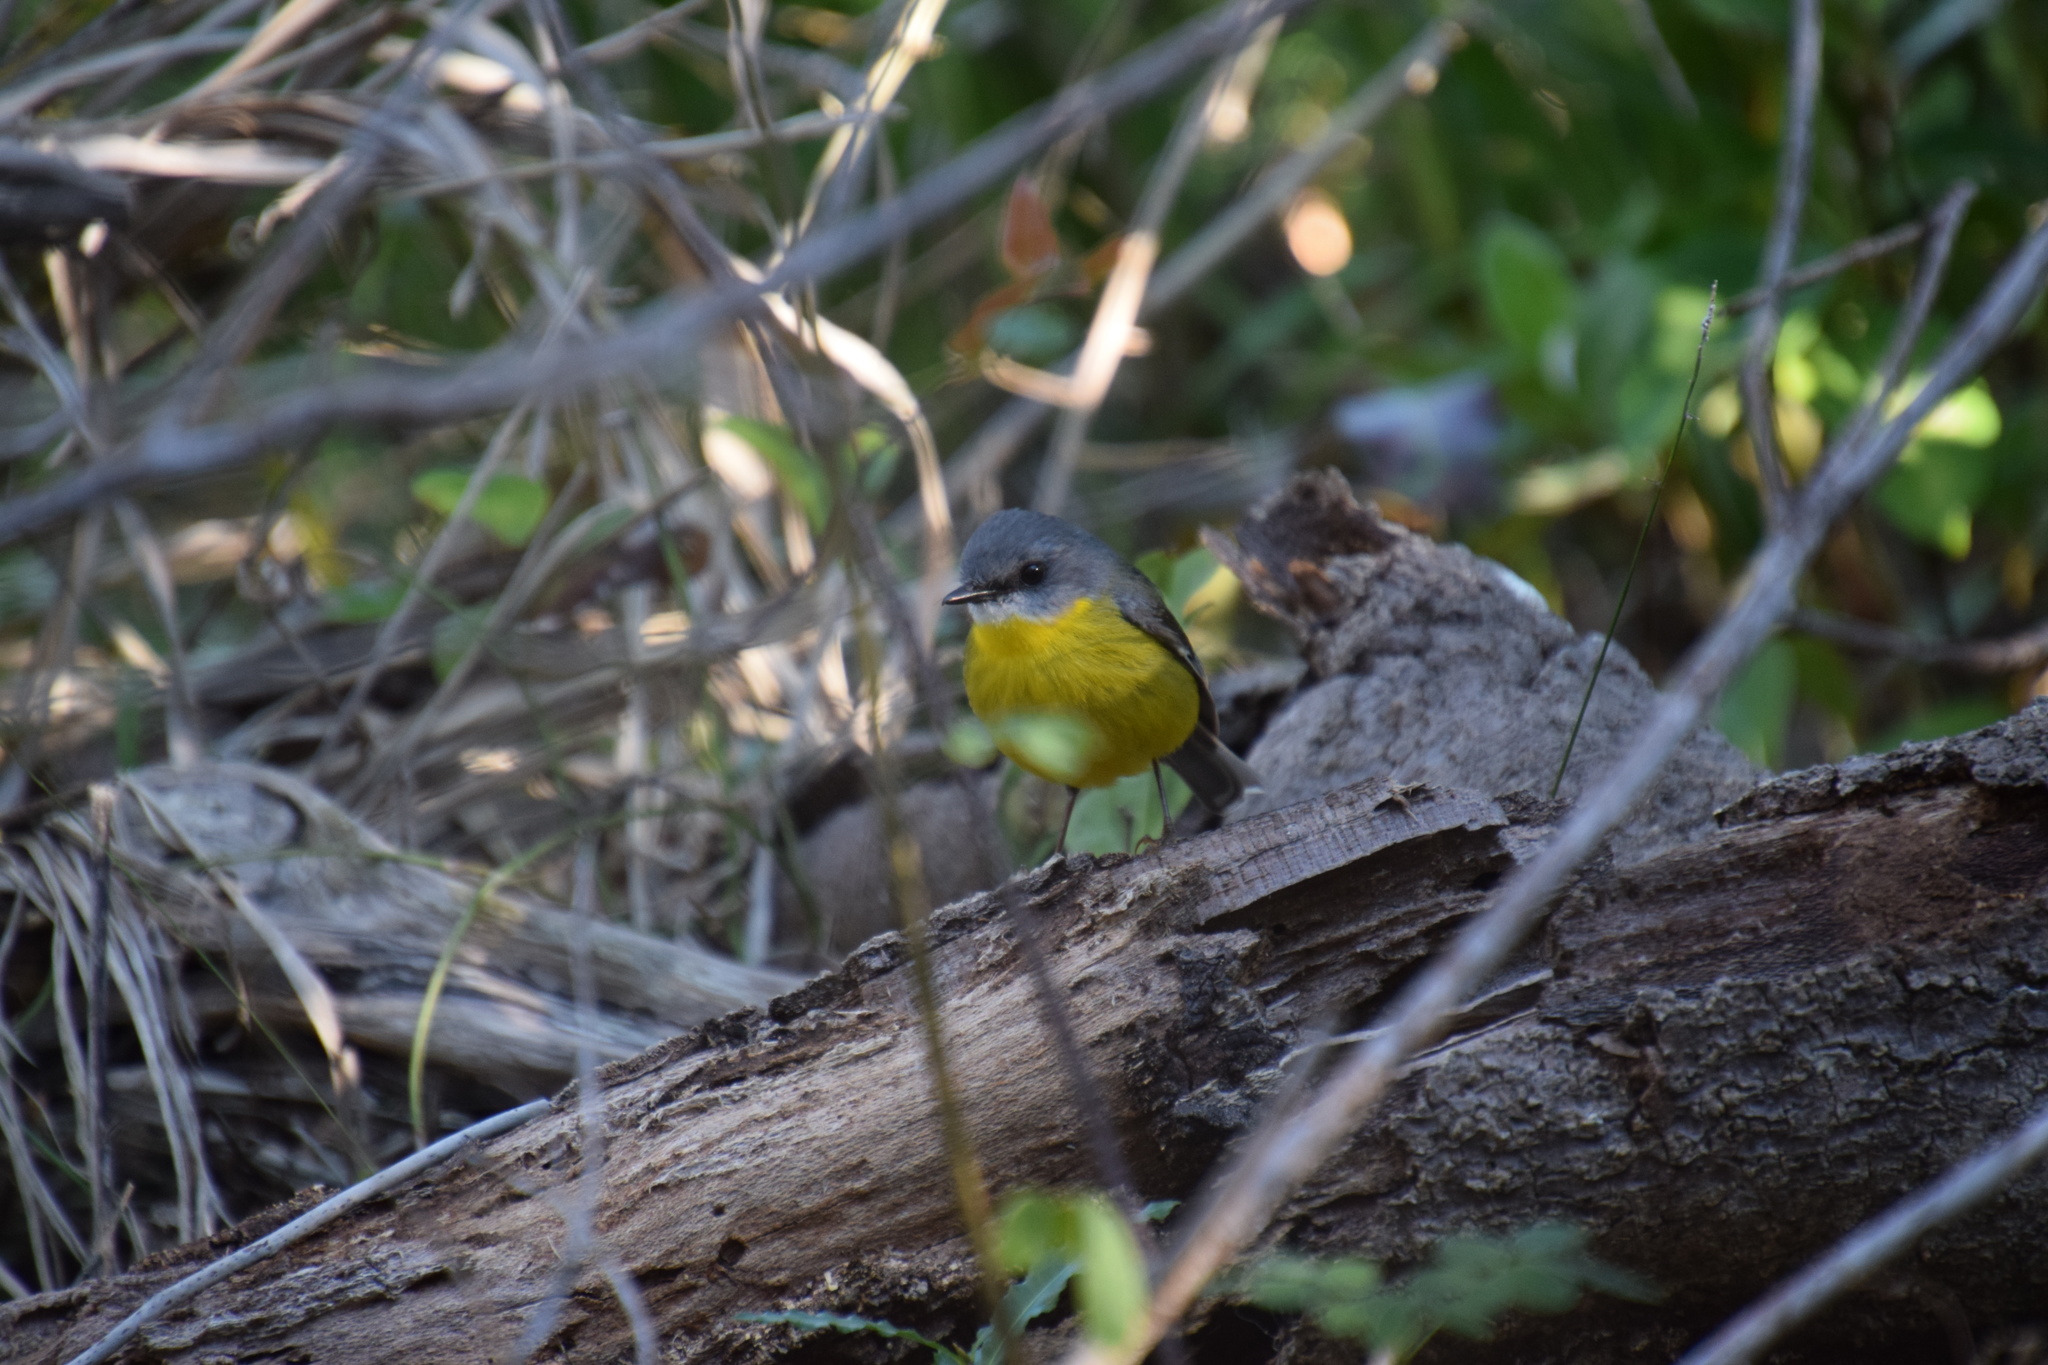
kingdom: Animalia
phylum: Chordata
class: Aves
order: Passeriformes
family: Petroicidae
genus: Eopsaltria
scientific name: Eopsaltria australis
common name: Eastern yellow robin
